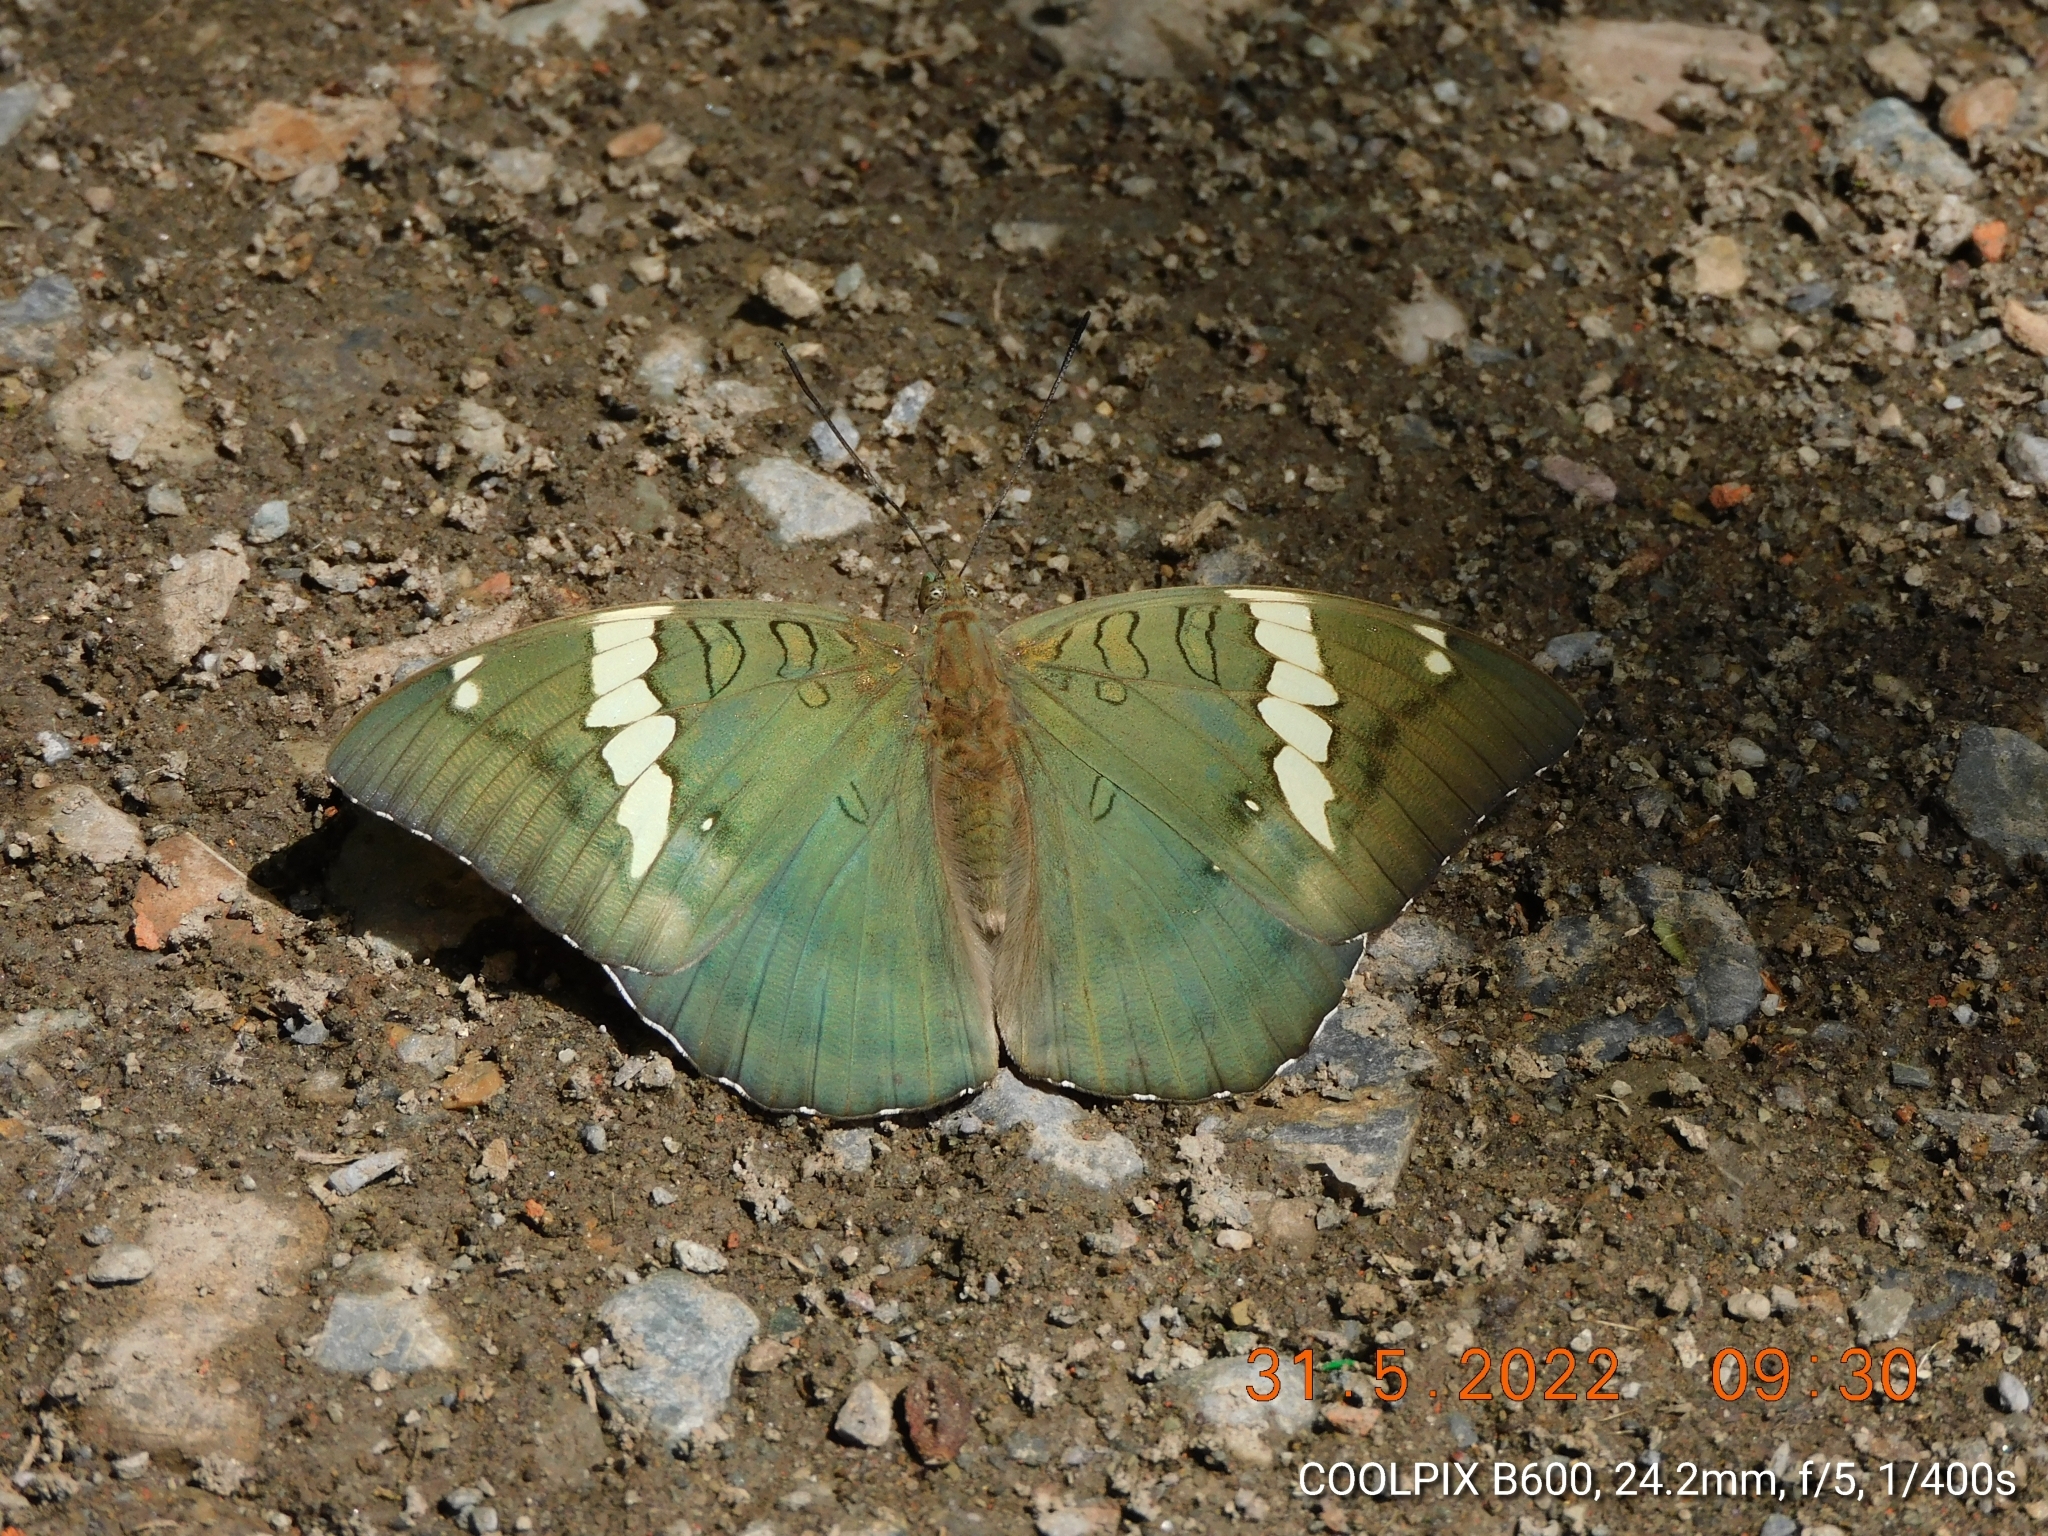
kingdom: Animalia
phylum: Arthropoda
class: Insecta
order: Lepidoptera
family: Nymphalidae
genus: Euthalia
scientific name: Euthalia patala
